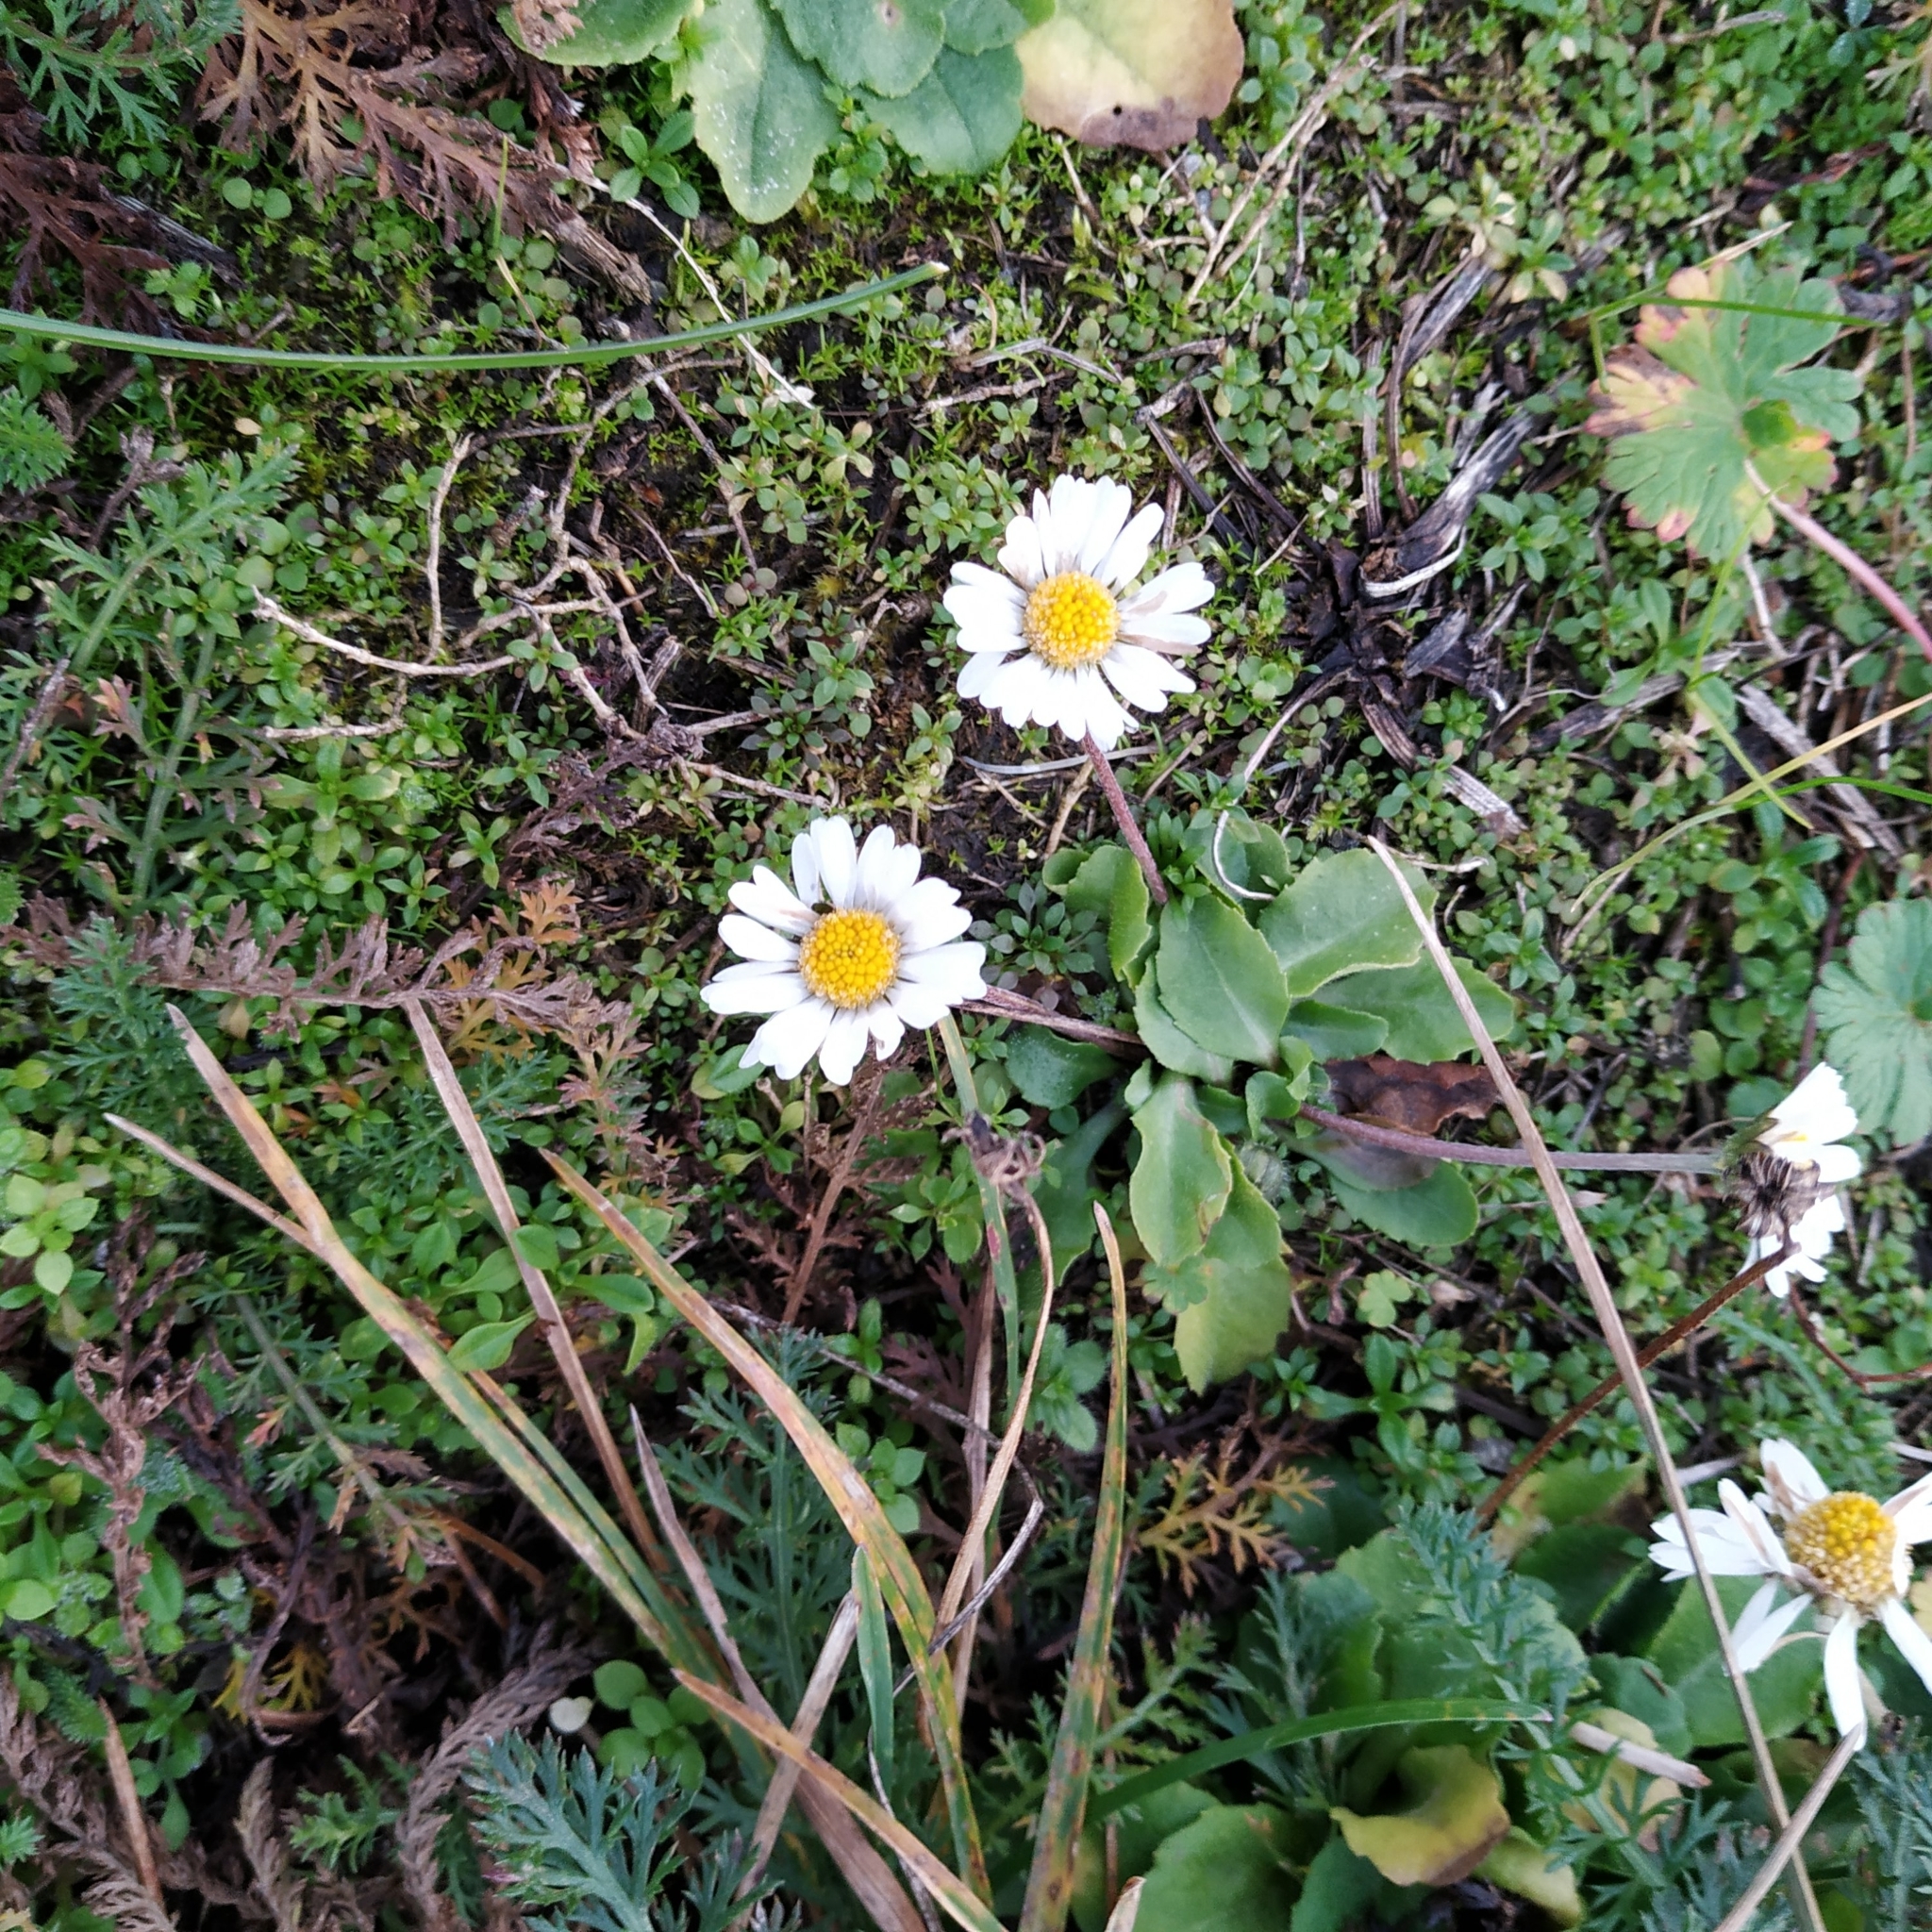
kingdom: Plantae
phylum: Tracheophyta
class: Magnoliopsida
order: Asterales
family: Asteraceae
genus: Bellis
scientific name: Bellis perennis
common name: Lawndaisy
